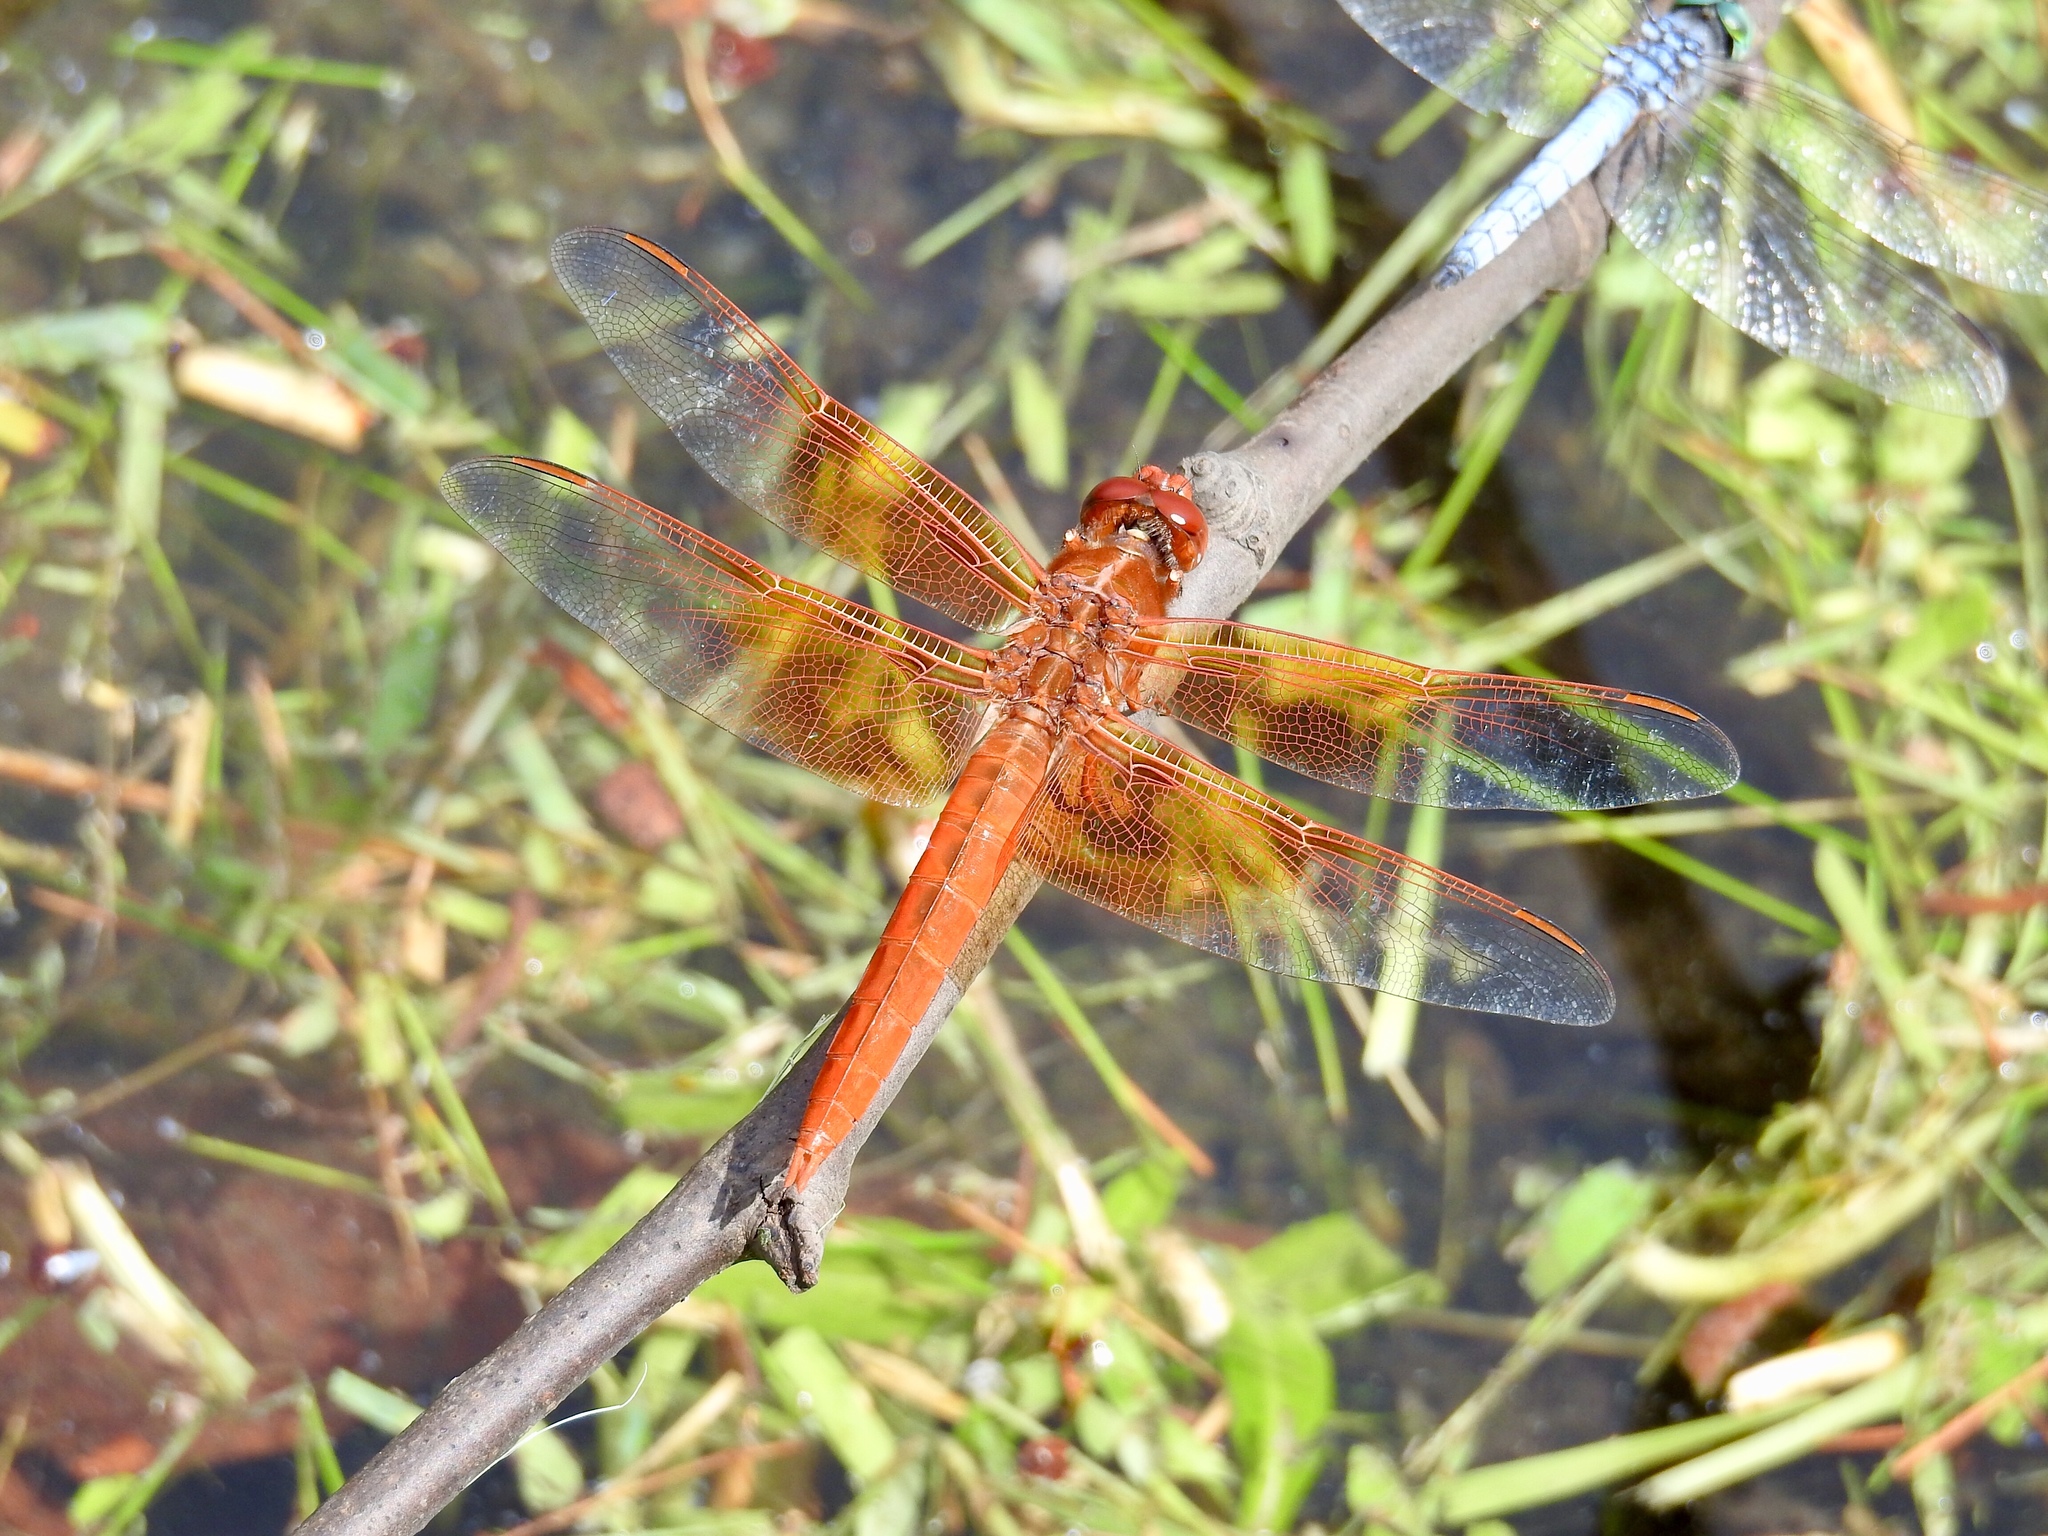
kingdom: Animalia
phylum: Arthropoda
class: Insecta
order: Odonata
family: Libellulidae
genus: Libellula
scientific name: Libellula saturata
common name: Flame skimmer
